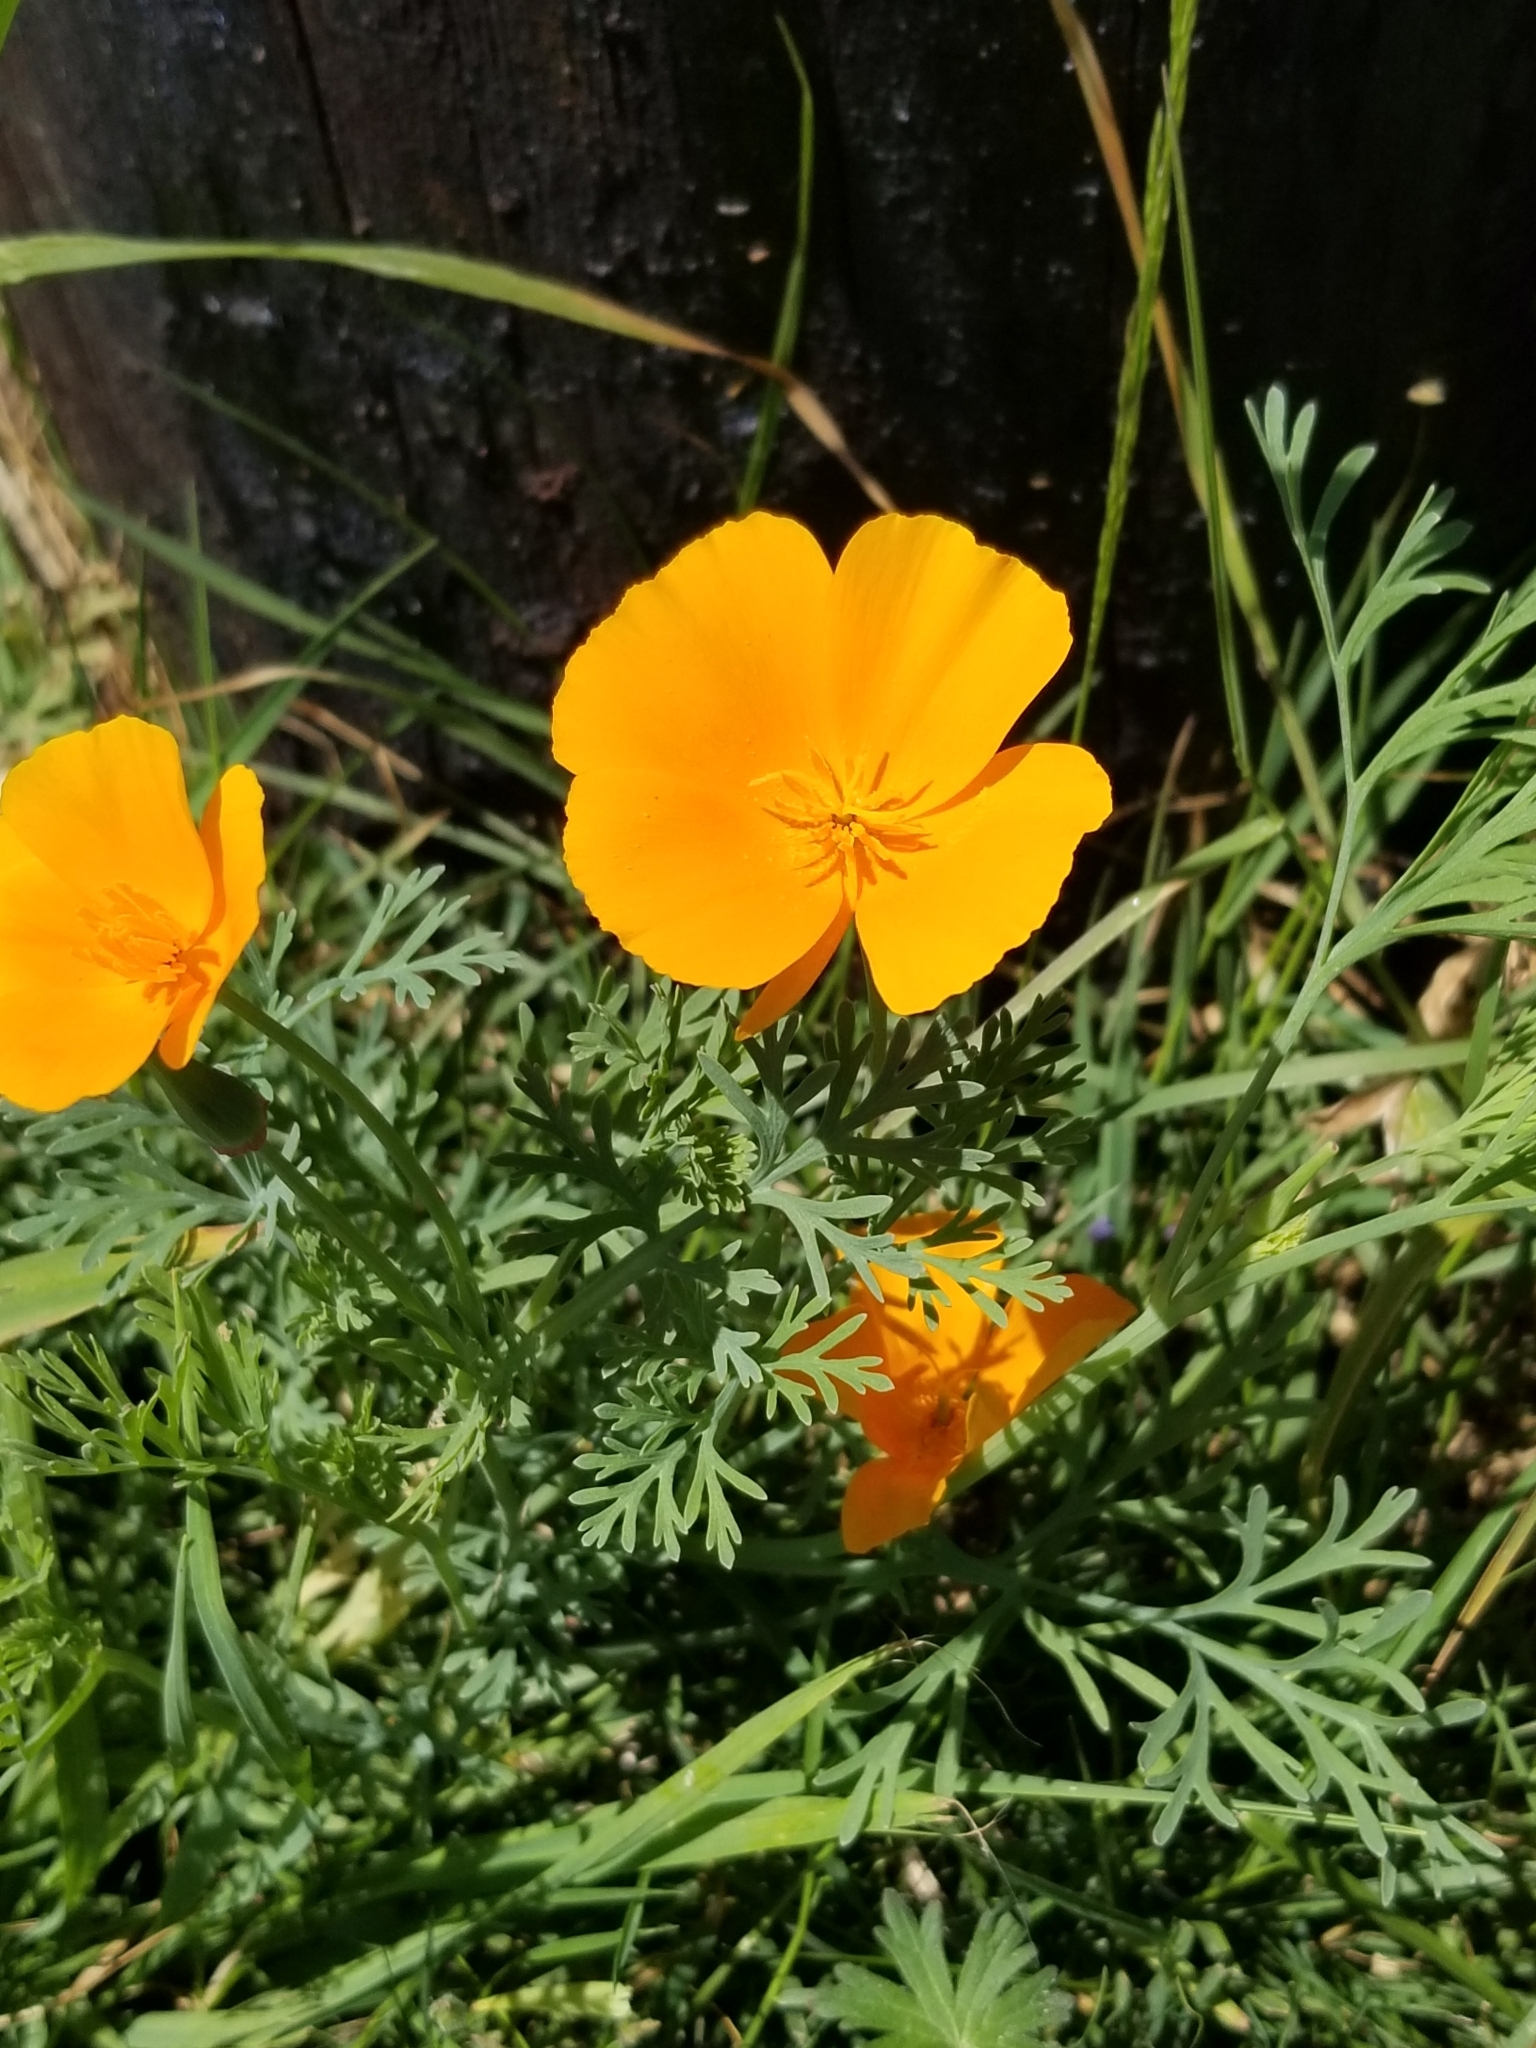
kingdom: Plantae
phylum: Tracheophyta
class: Magnoliopsida
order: Ranunculales
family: Papaveraceae
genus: Eschscholzia
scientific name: Eschscholzia californica
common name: California poppy
